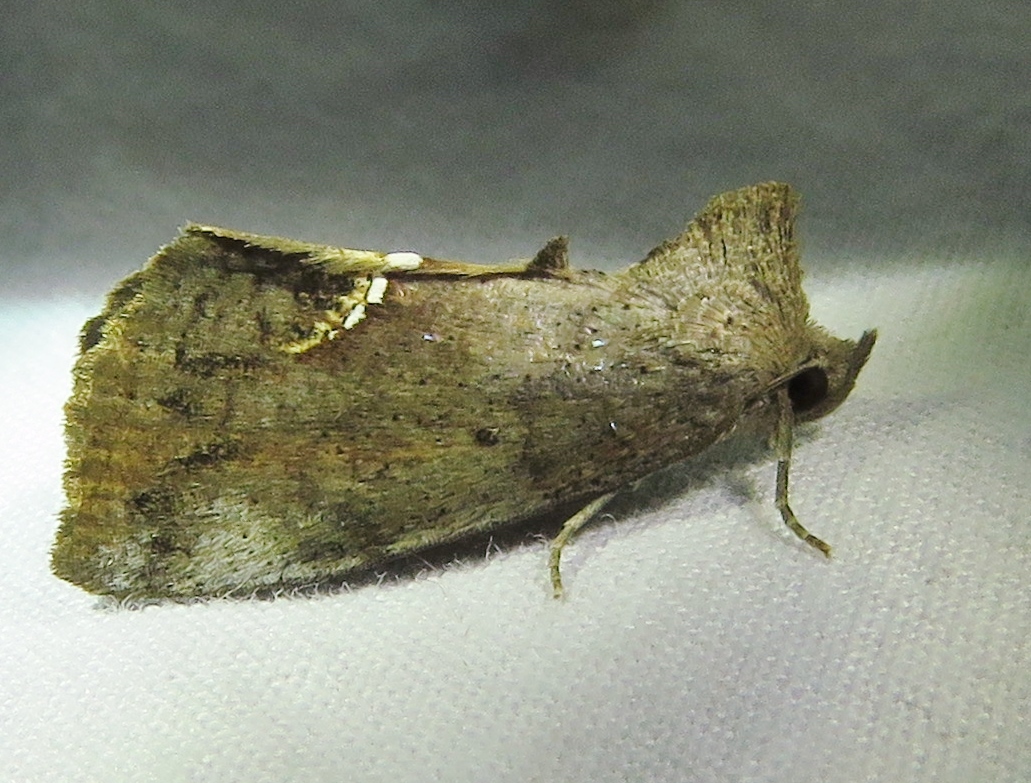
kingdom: Animalia
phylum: Arthropoda
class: Insecta
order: Lepidoptera
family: Erebidae
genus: Hypsoropha
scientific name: Hypsoropha hormos
